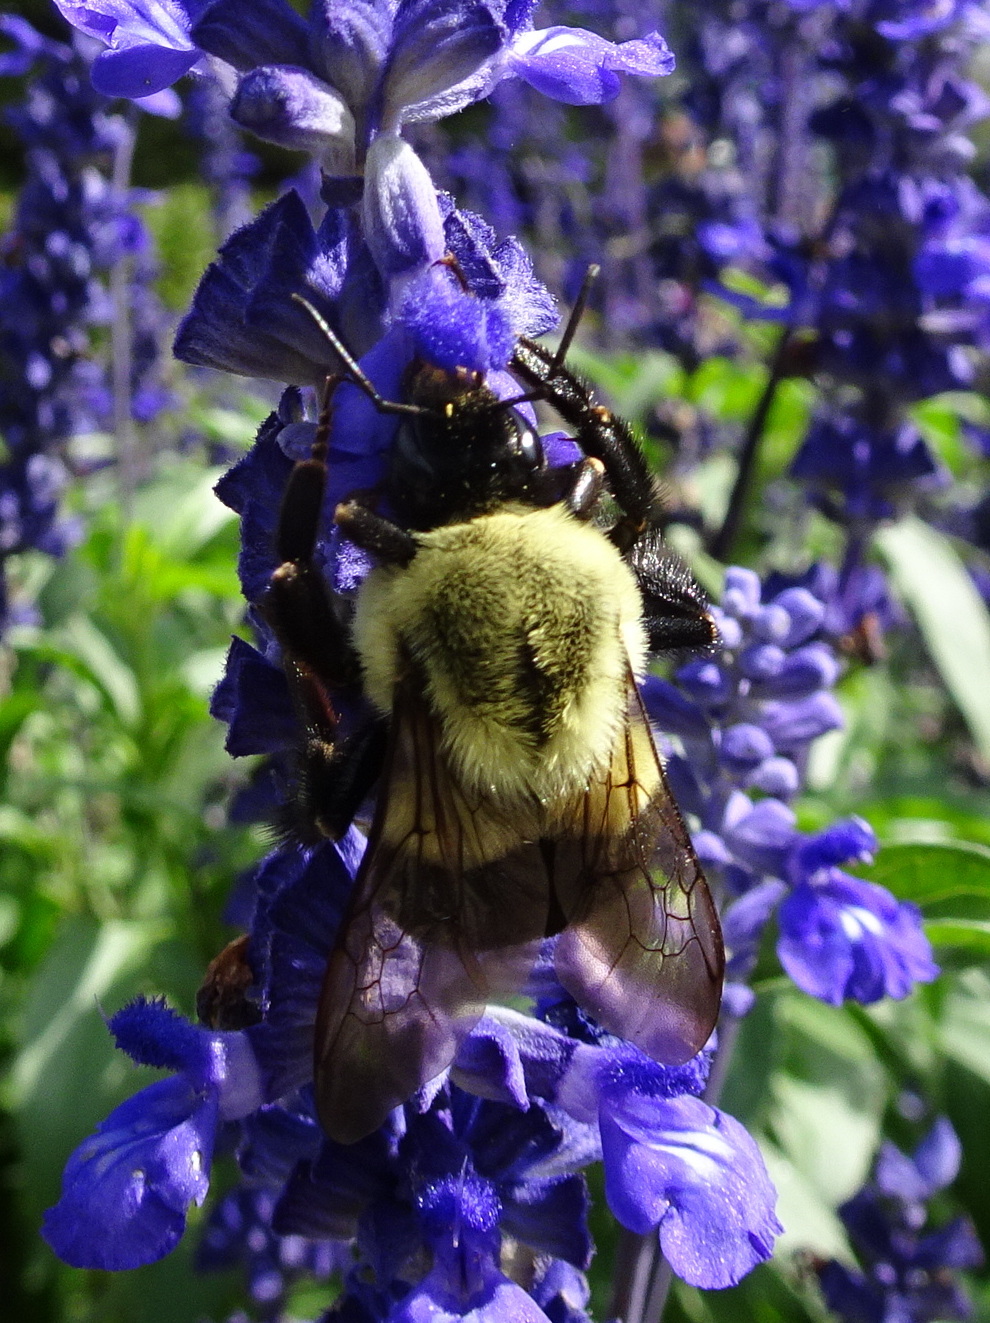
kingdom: Animalia
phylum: Arthropoda
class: Insecta
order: Hymenoptera
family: Apidae
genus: Bombus
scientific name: Bombus impatiens
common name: Common eastern bumble bee
